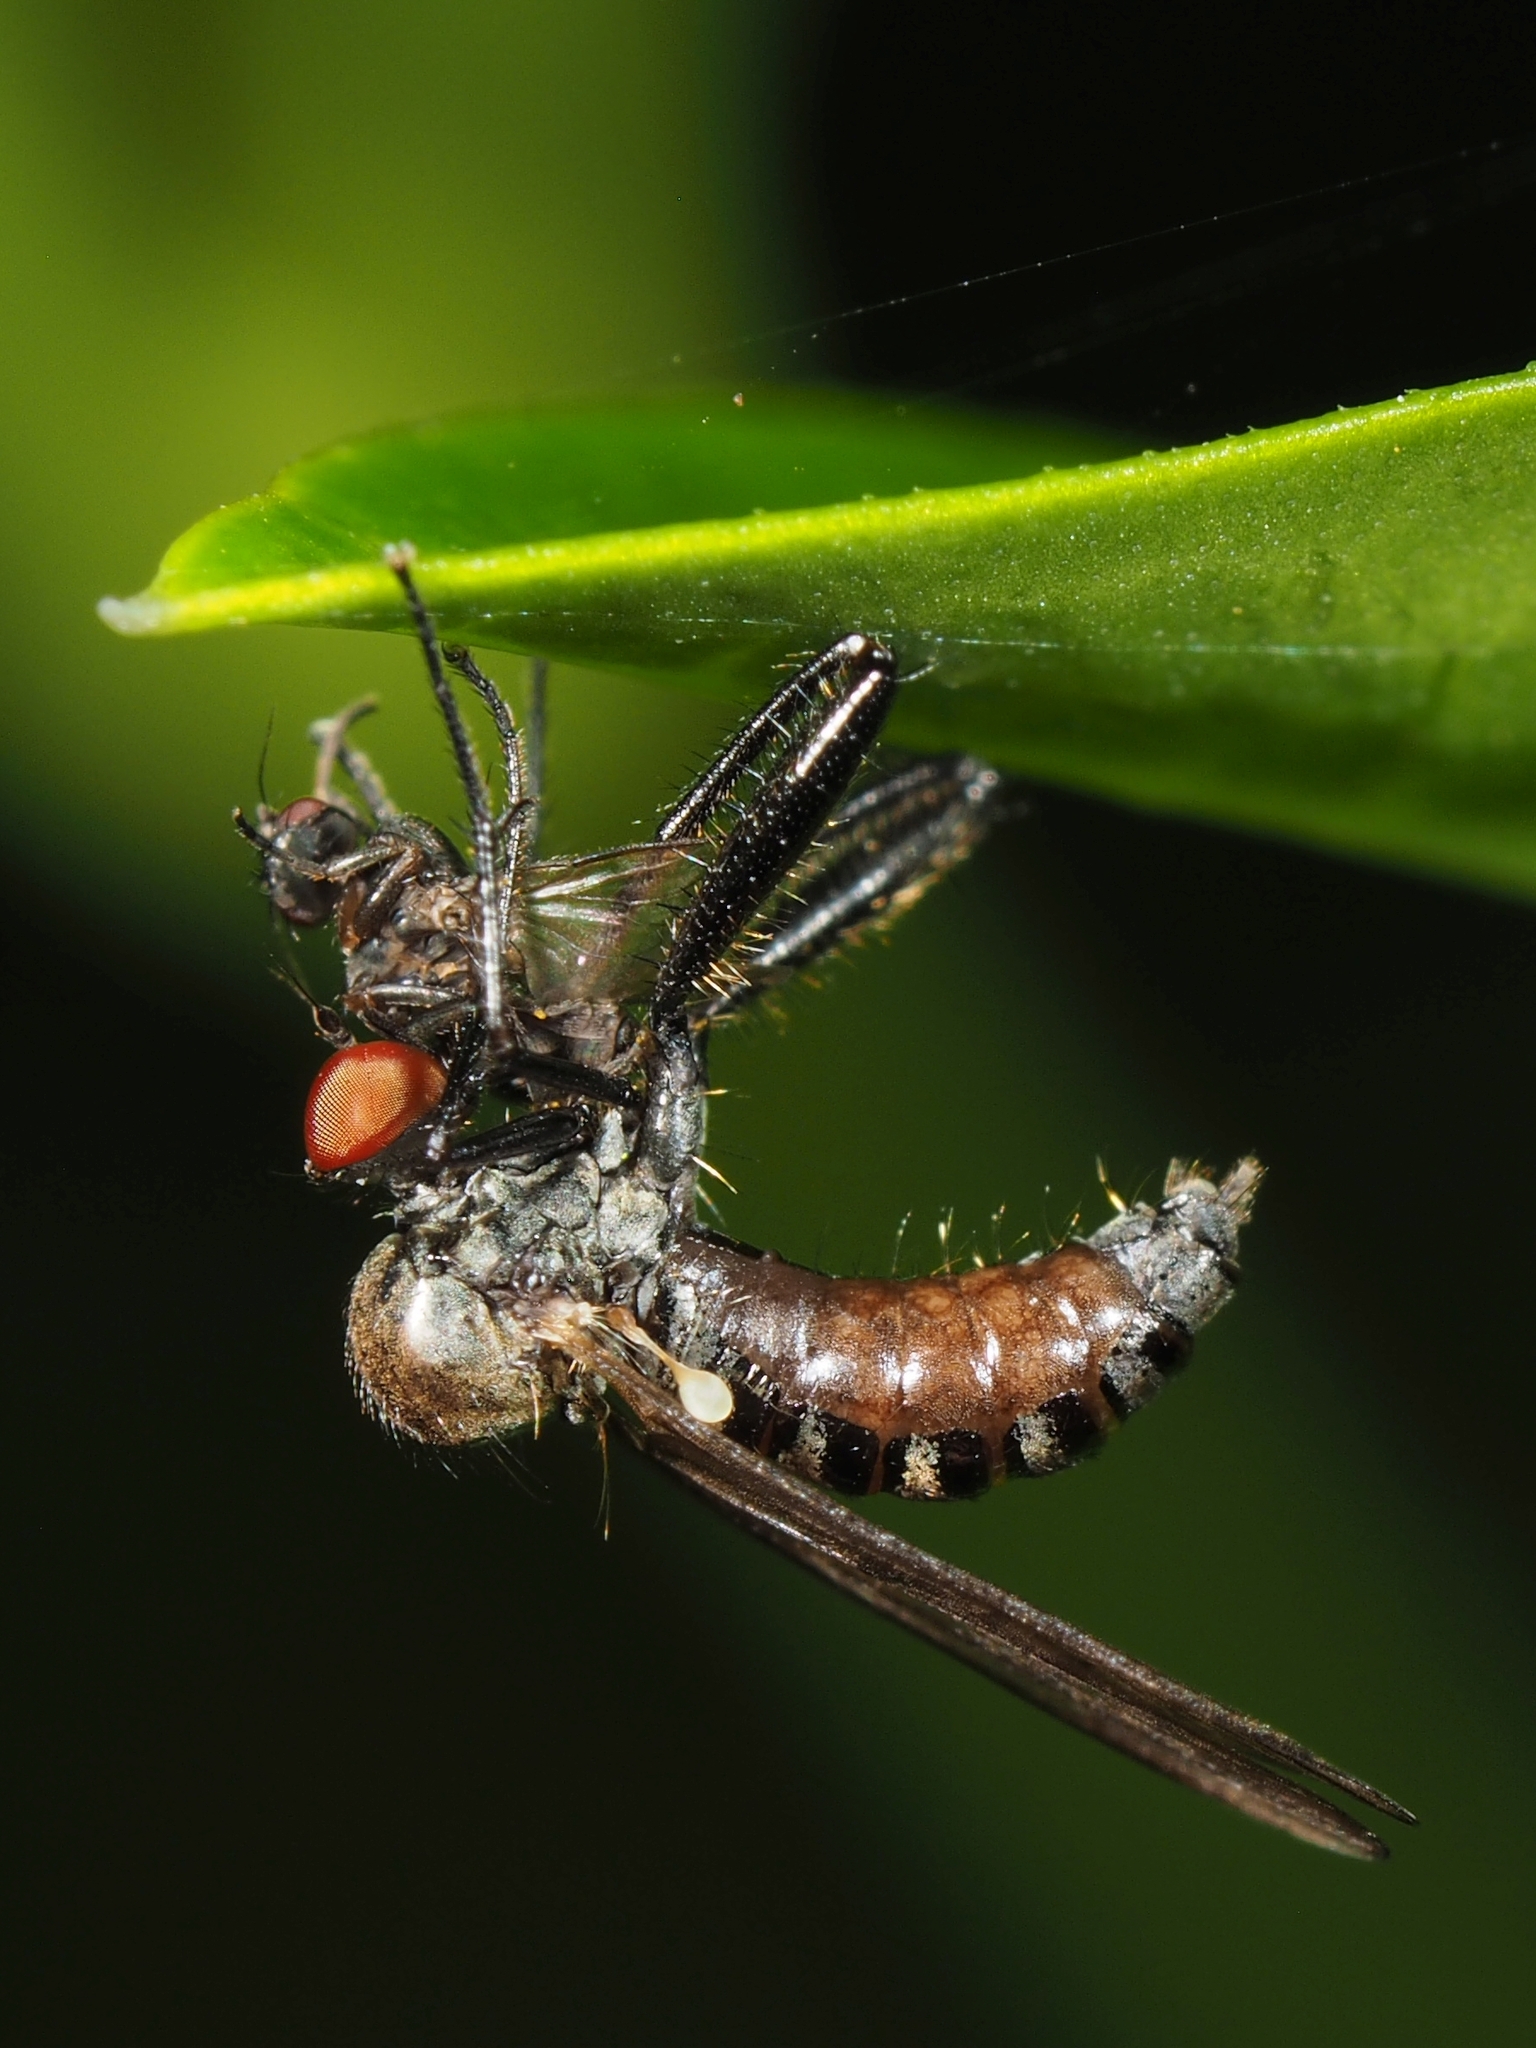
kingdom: Animalia
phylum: Arthropoda
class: Insecta
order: Diptera
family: Hybotidae
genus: Hybos
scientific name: Hybos culiciformis
